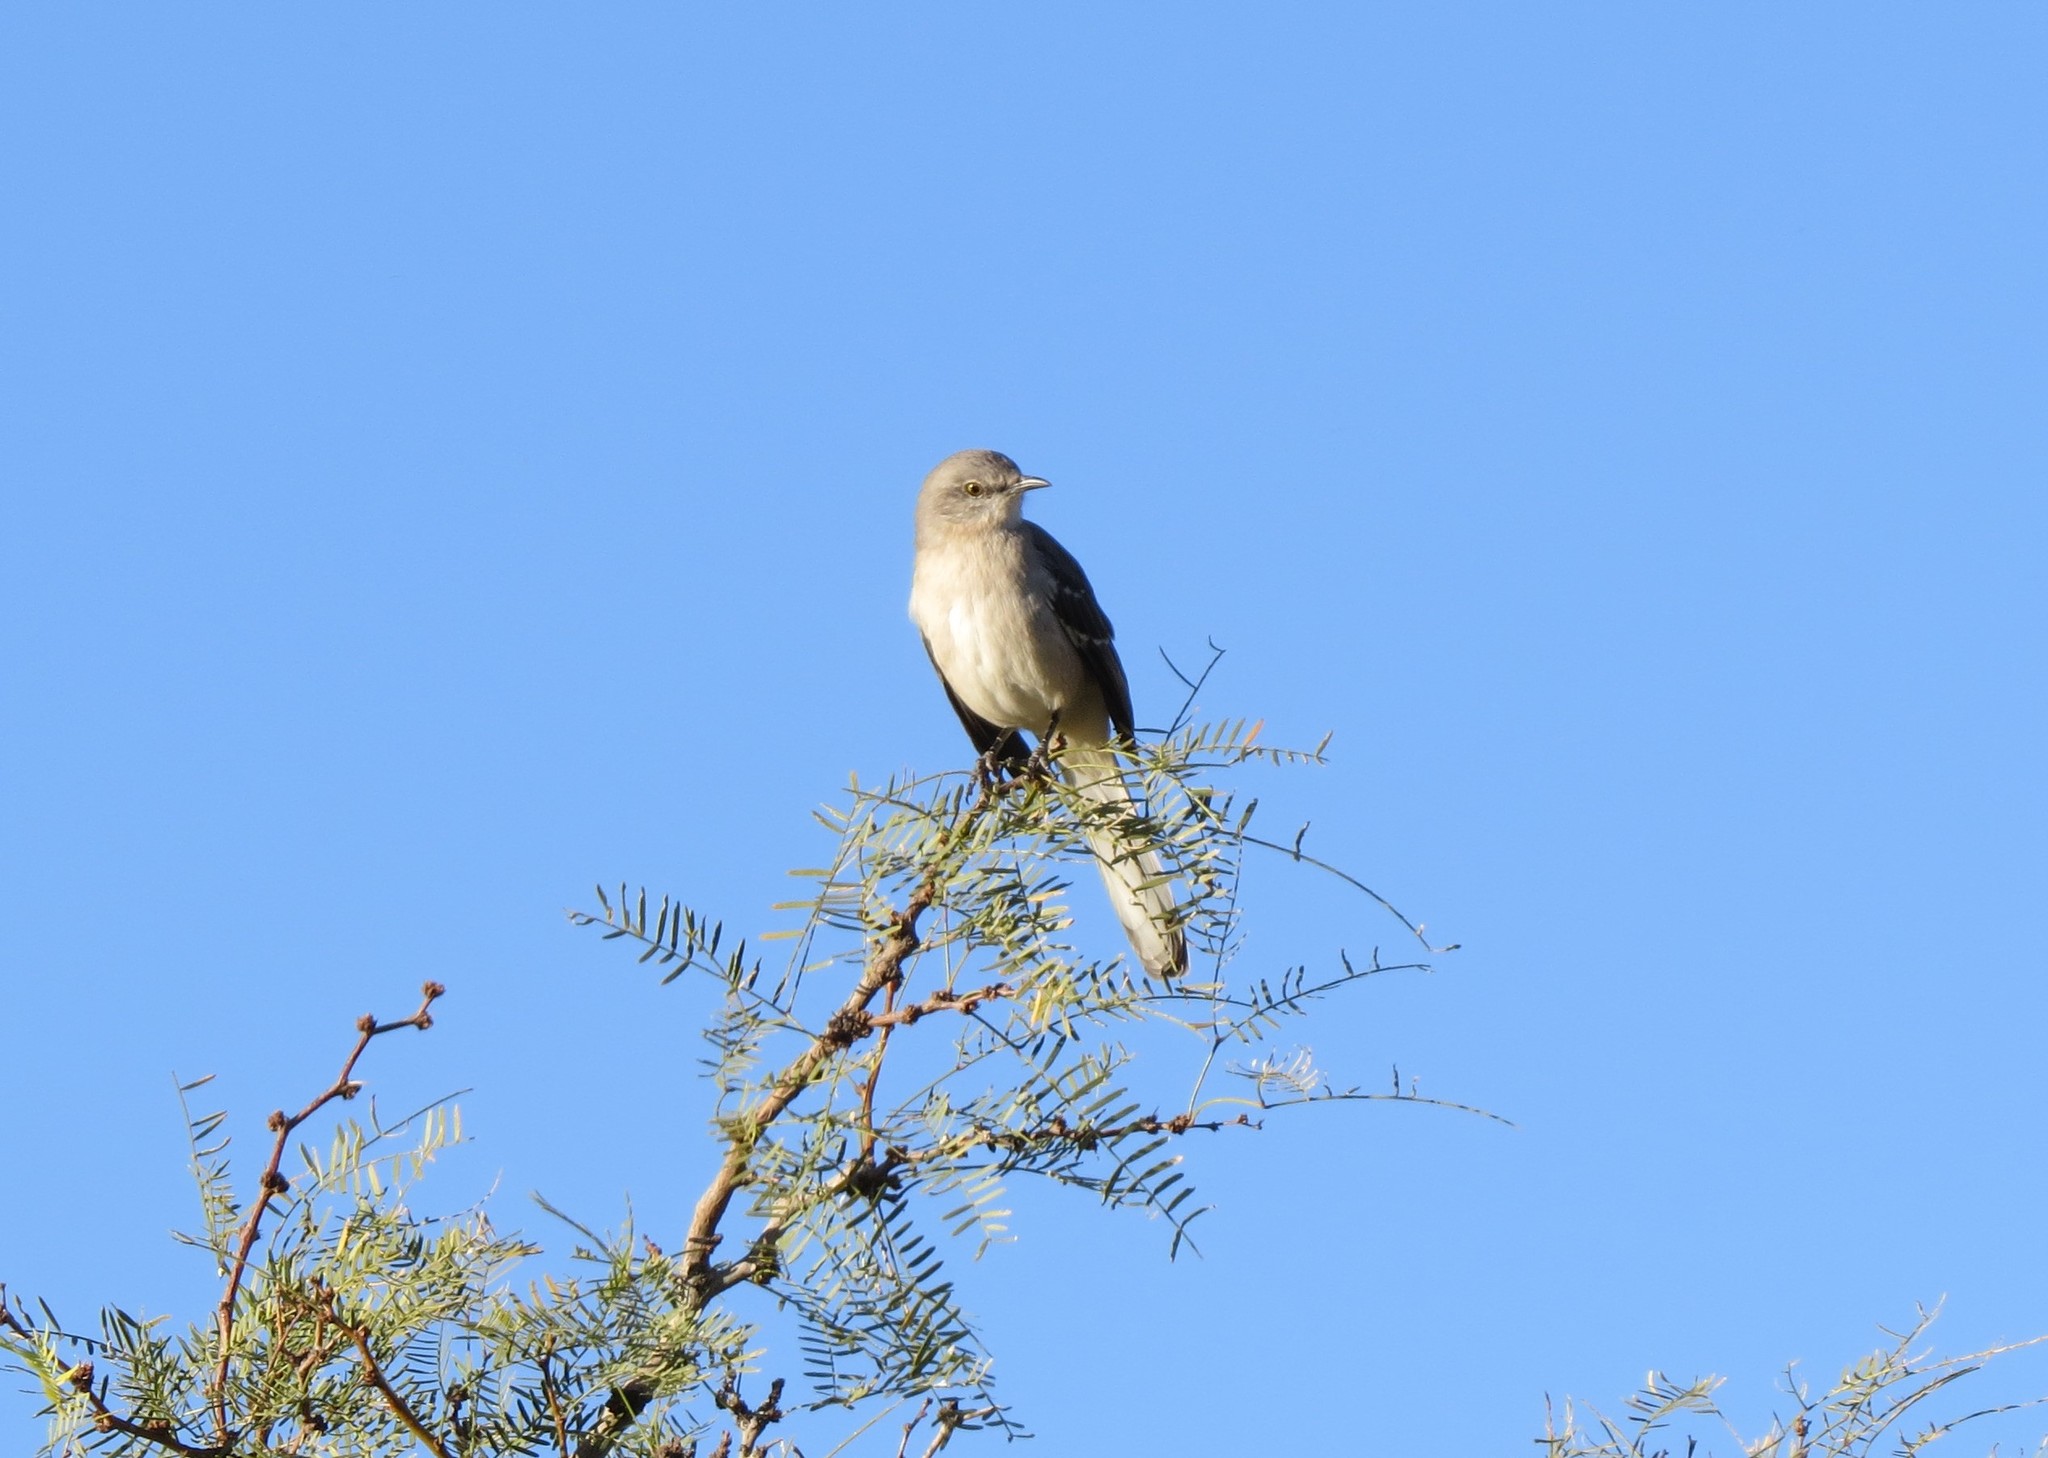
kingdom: Animalia
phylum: Chordata
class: Aves
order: Passeriformes
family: Mimidae
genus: Mimus
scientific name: Mimus polyglottos
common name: Northern mockingbird
